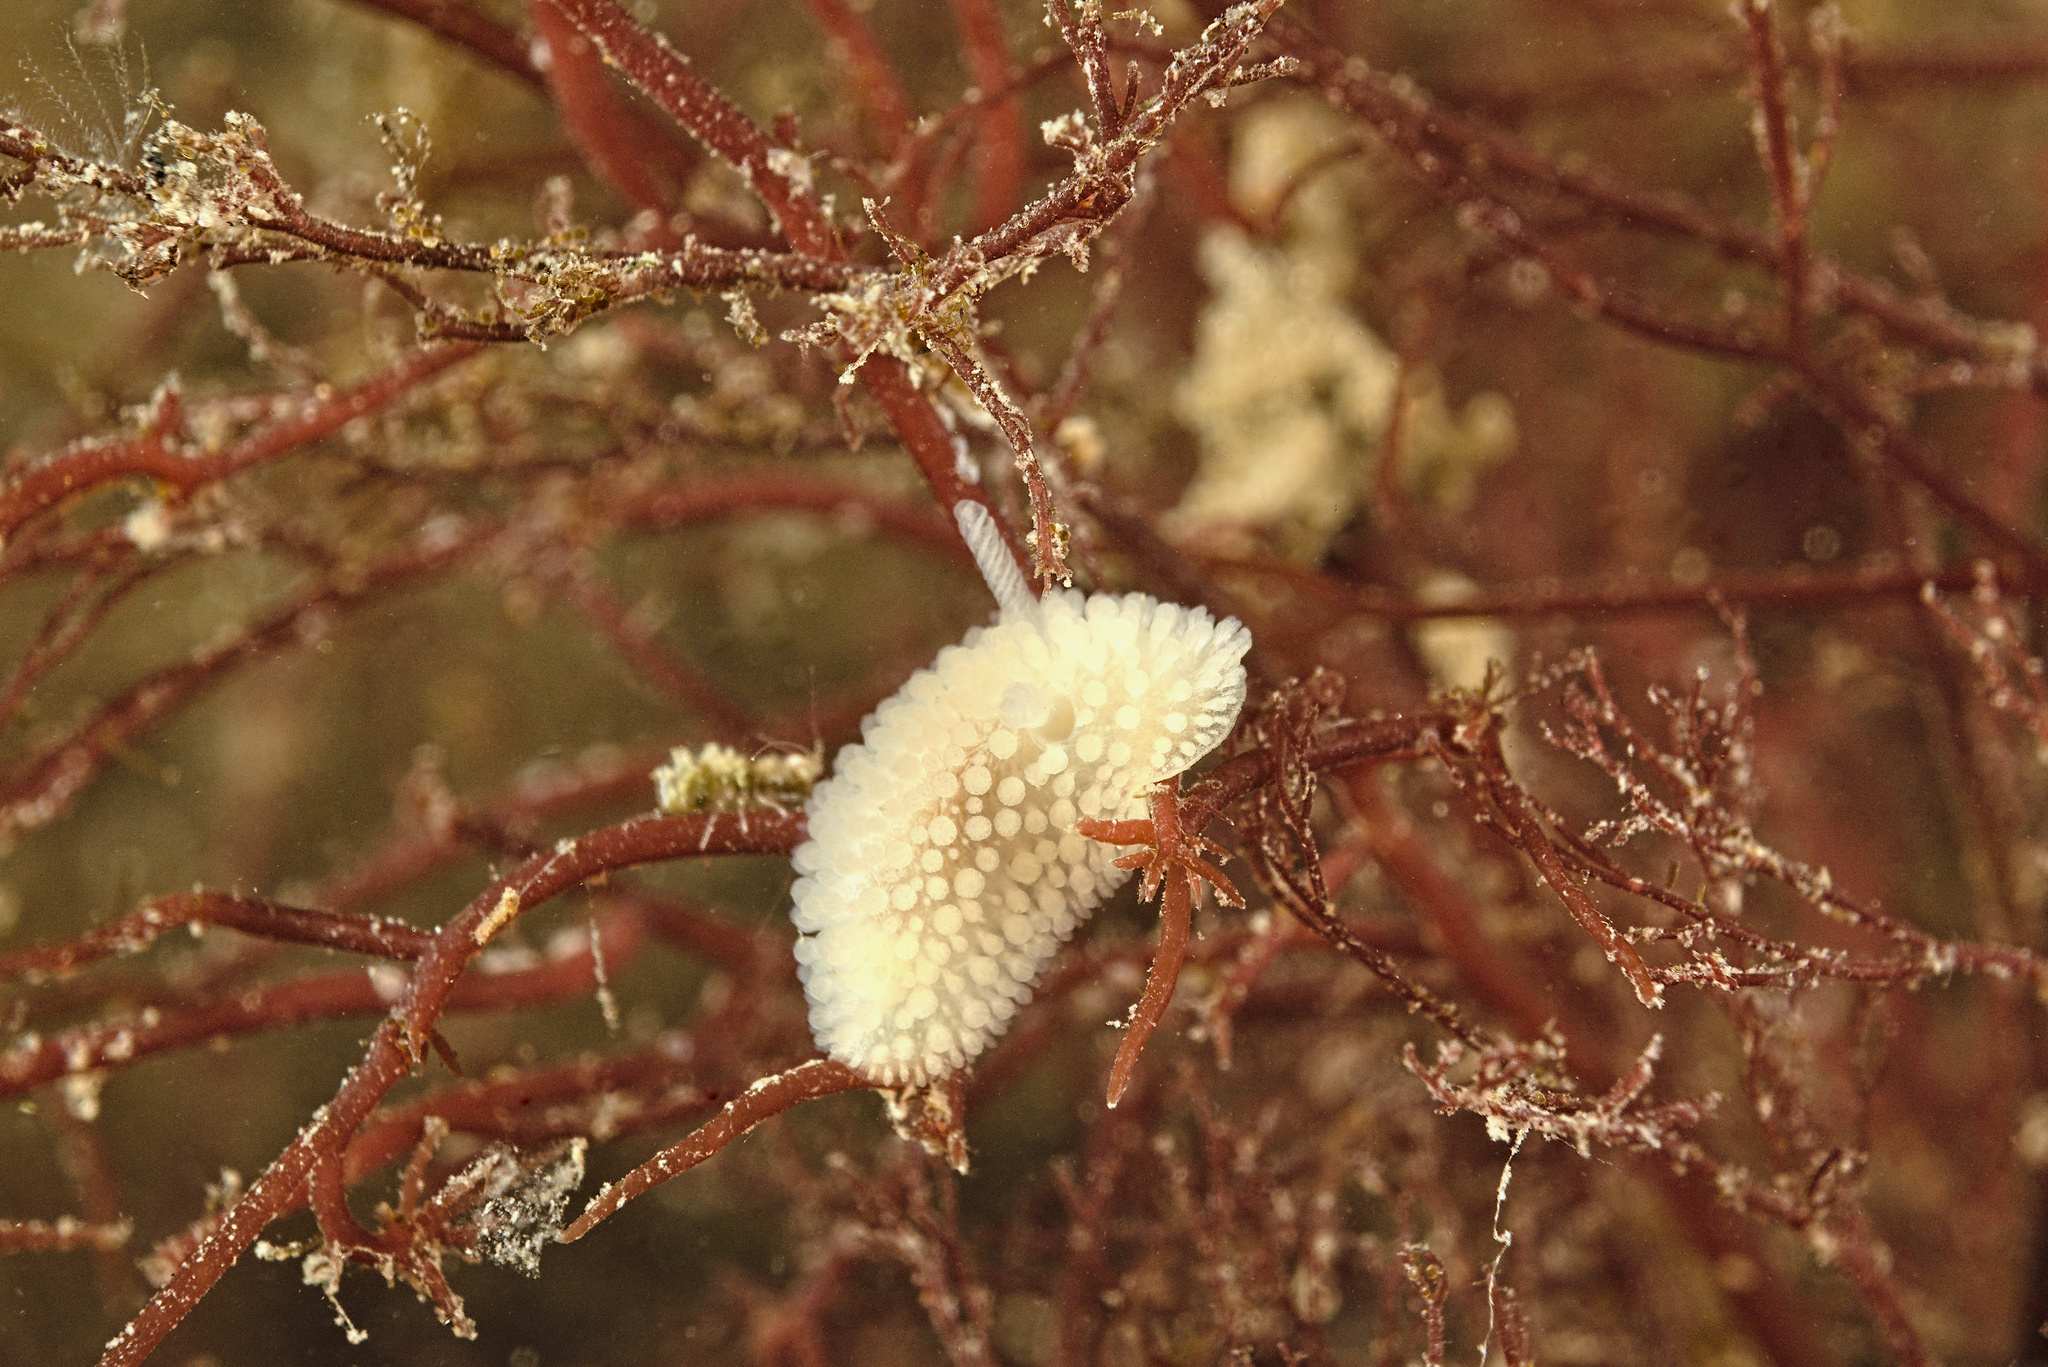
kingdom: Animalia
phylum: Mollusca
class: Gastropoda
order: Nudibranchia
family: Onchidorididae
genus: Onchidoris
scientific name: Onchidoris muricata
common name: Rough doris
